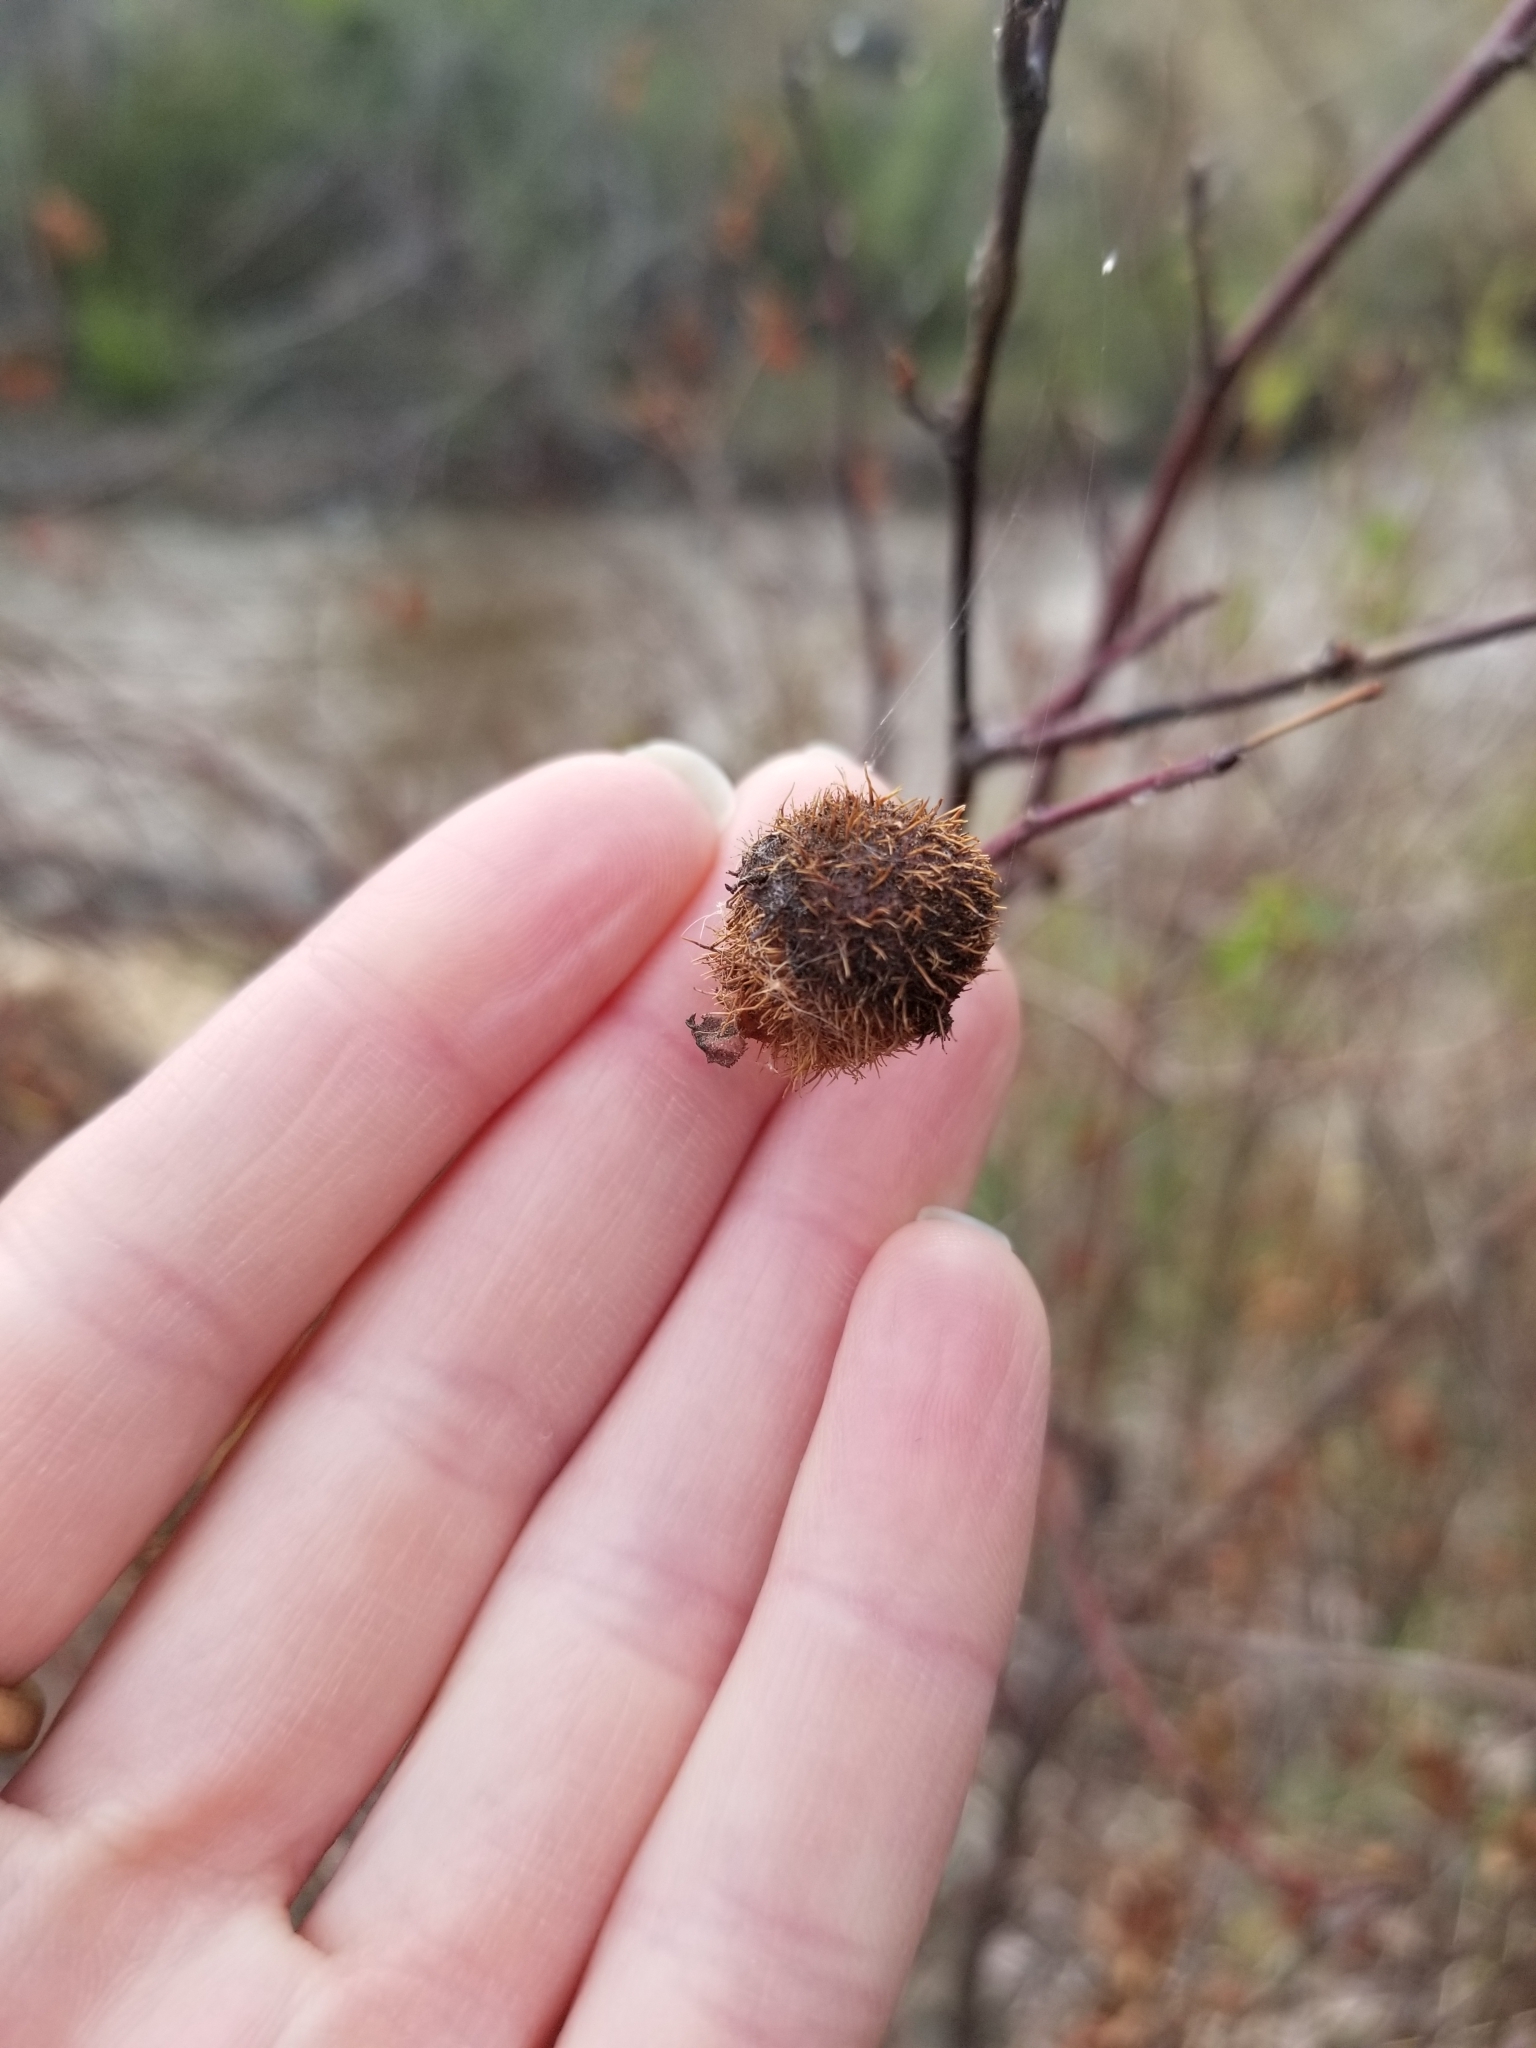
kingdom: Animalia
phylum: Arthropoda
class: Insecta
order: Hymenoptera
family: Cynipidae
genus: Diplolepis
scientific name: Diplolepis spinosa
